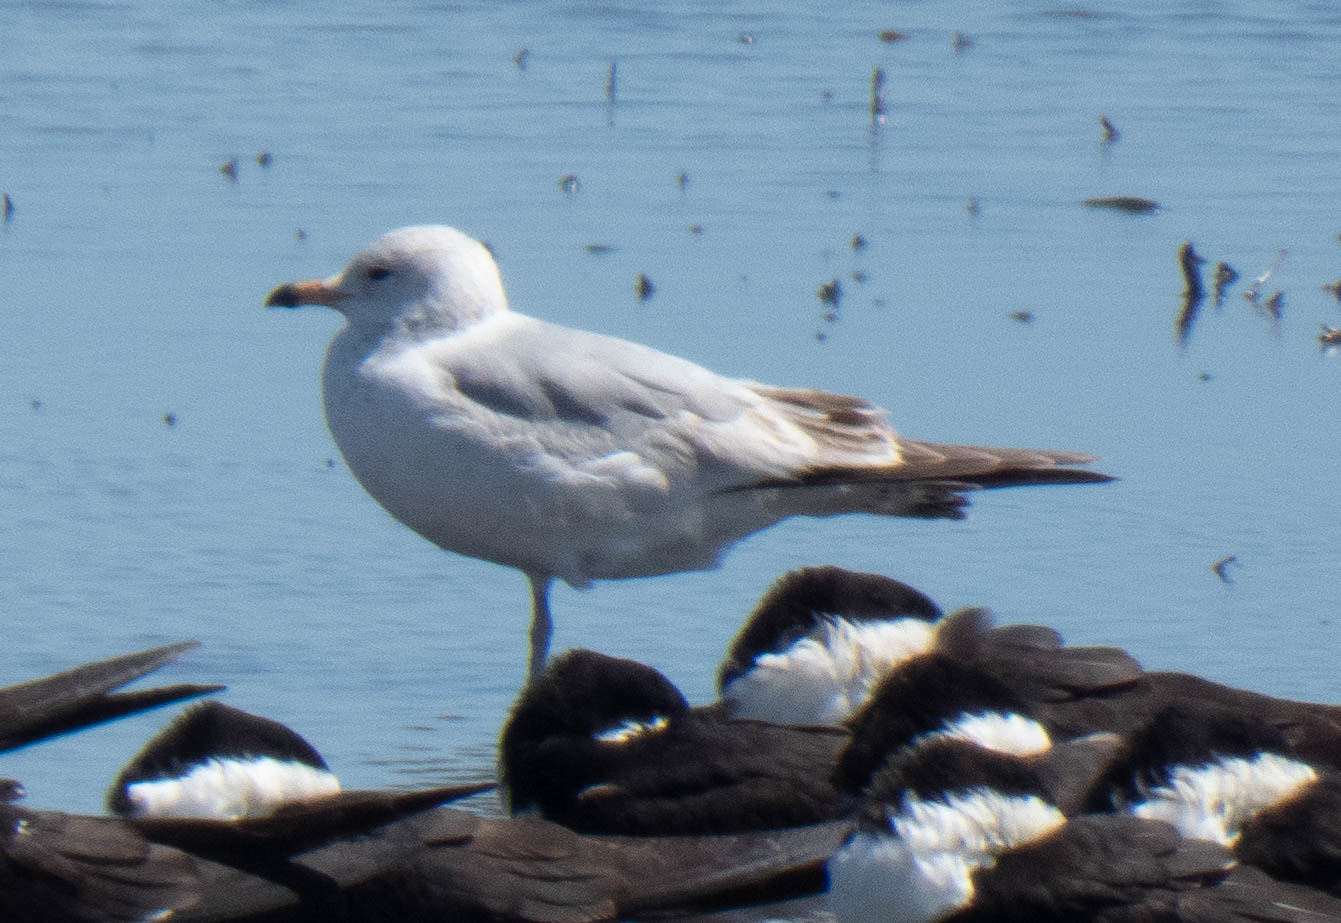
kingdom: Animalia
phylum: Chordata
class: Aves
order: Charadriiformes
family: Laridae
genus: Larus
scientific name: Larus delawarensis
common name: Ring-billed gull
